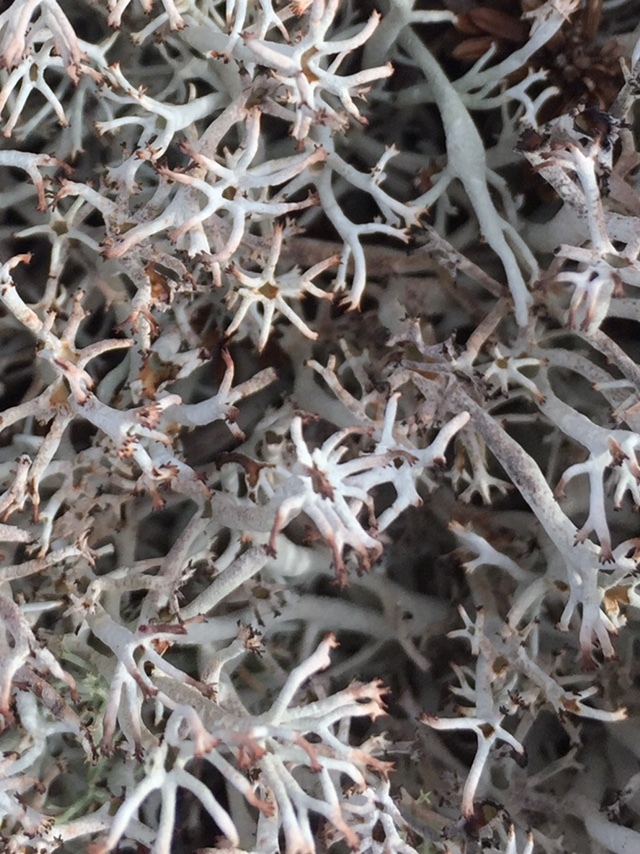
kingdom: Fungi
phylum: Ascomycota
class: Lecanoromycetes
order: Lecanorales
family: Cladoniaceae
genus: Cladonia
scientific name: Cladonia rangiferina
